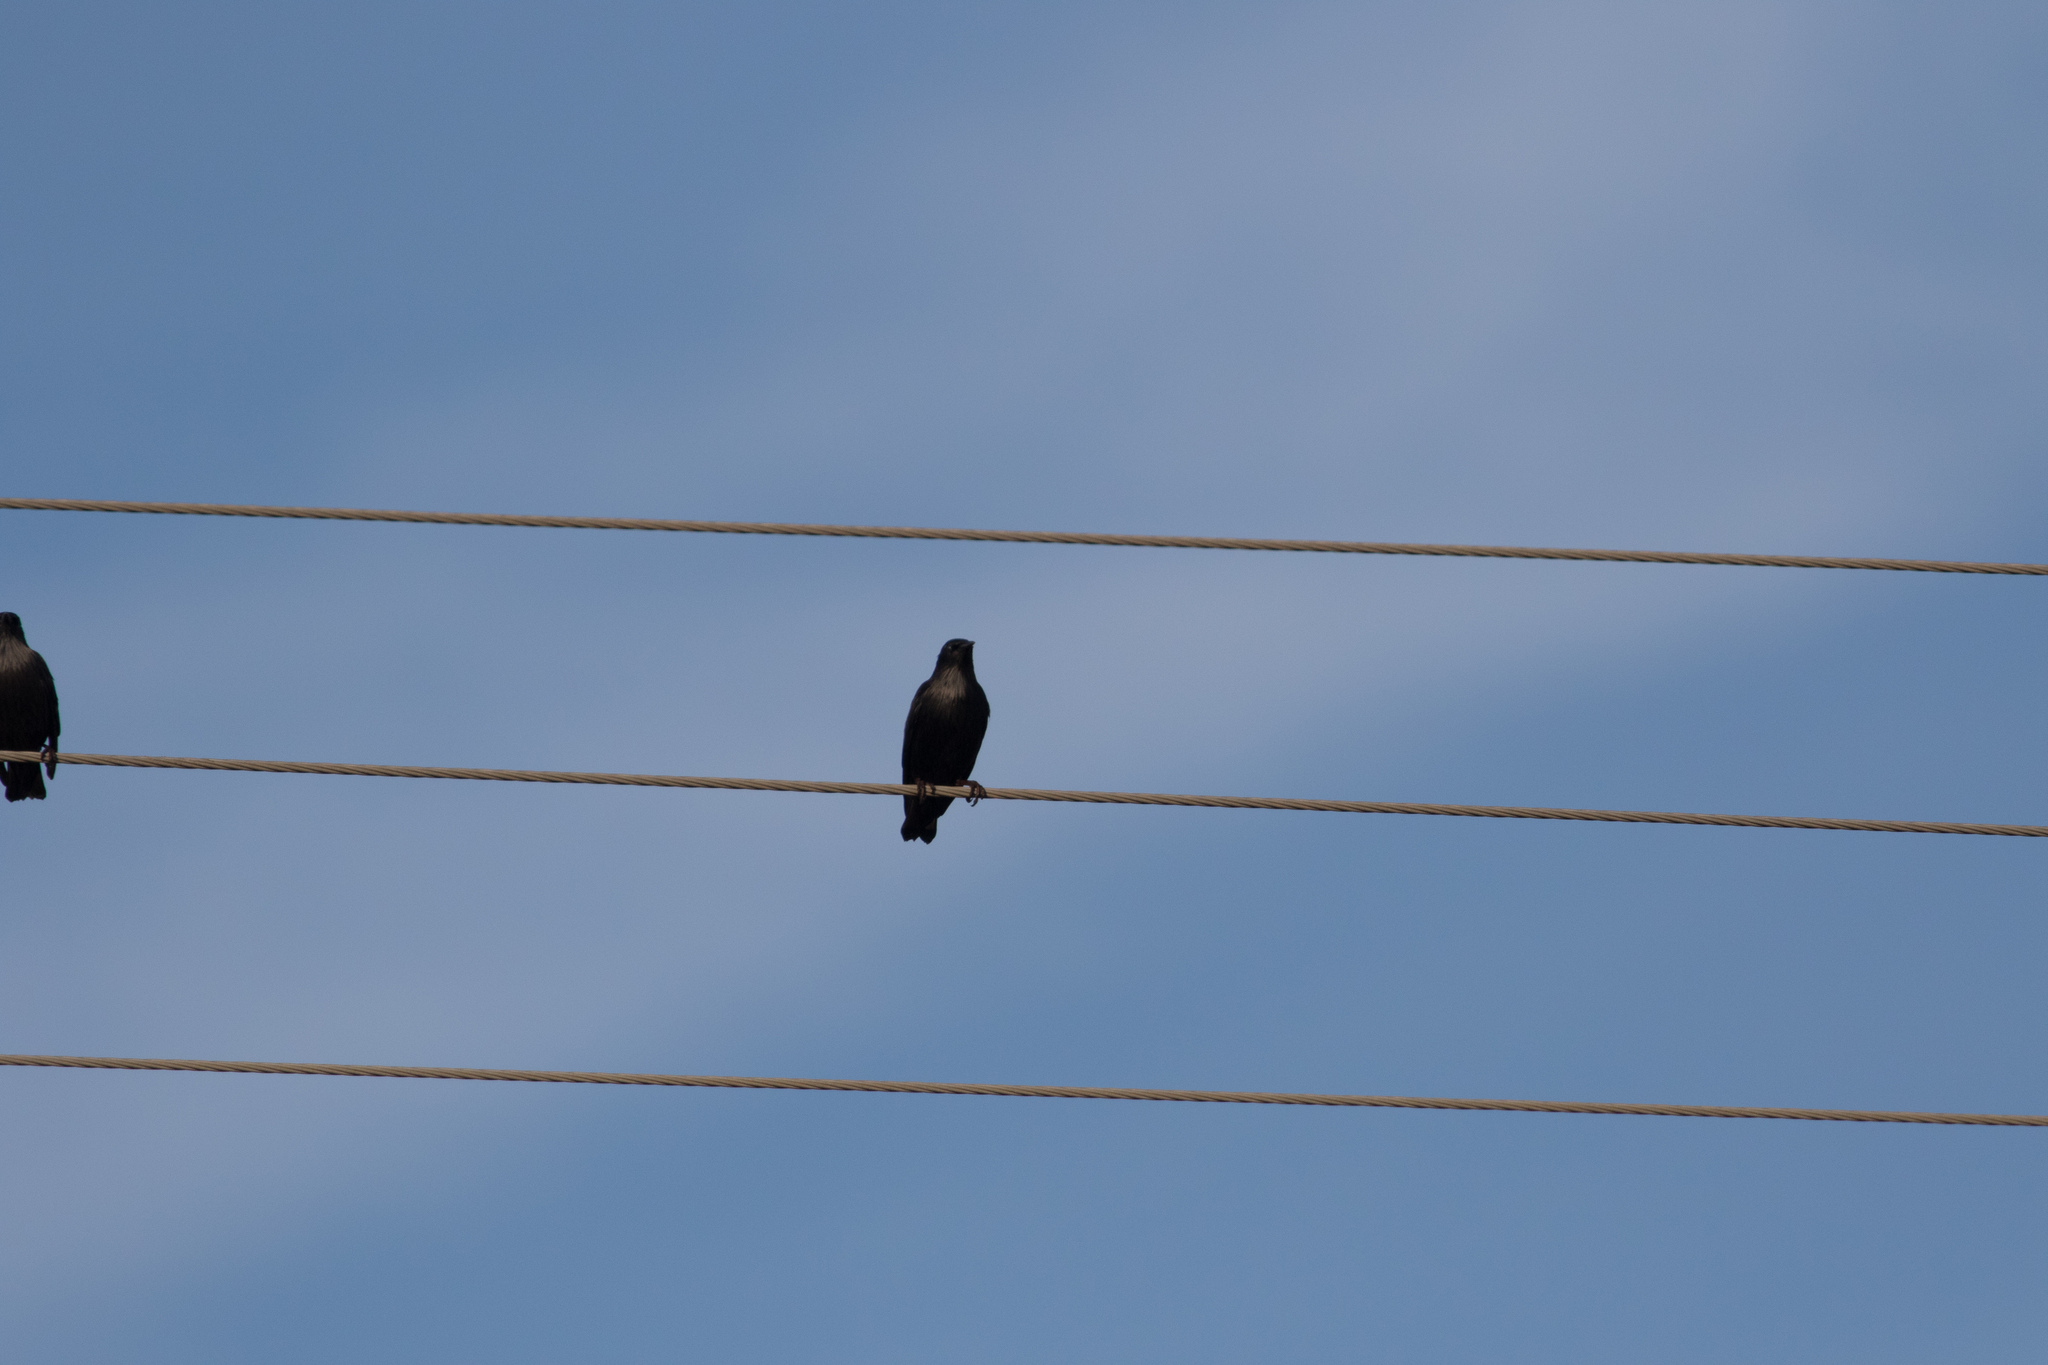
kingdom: Animalia
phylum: Chordata
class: Aves
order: Passeriformes
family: Sturnidae
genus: Sturnus
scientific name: Sturnus unicolor
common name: Spotless starling
